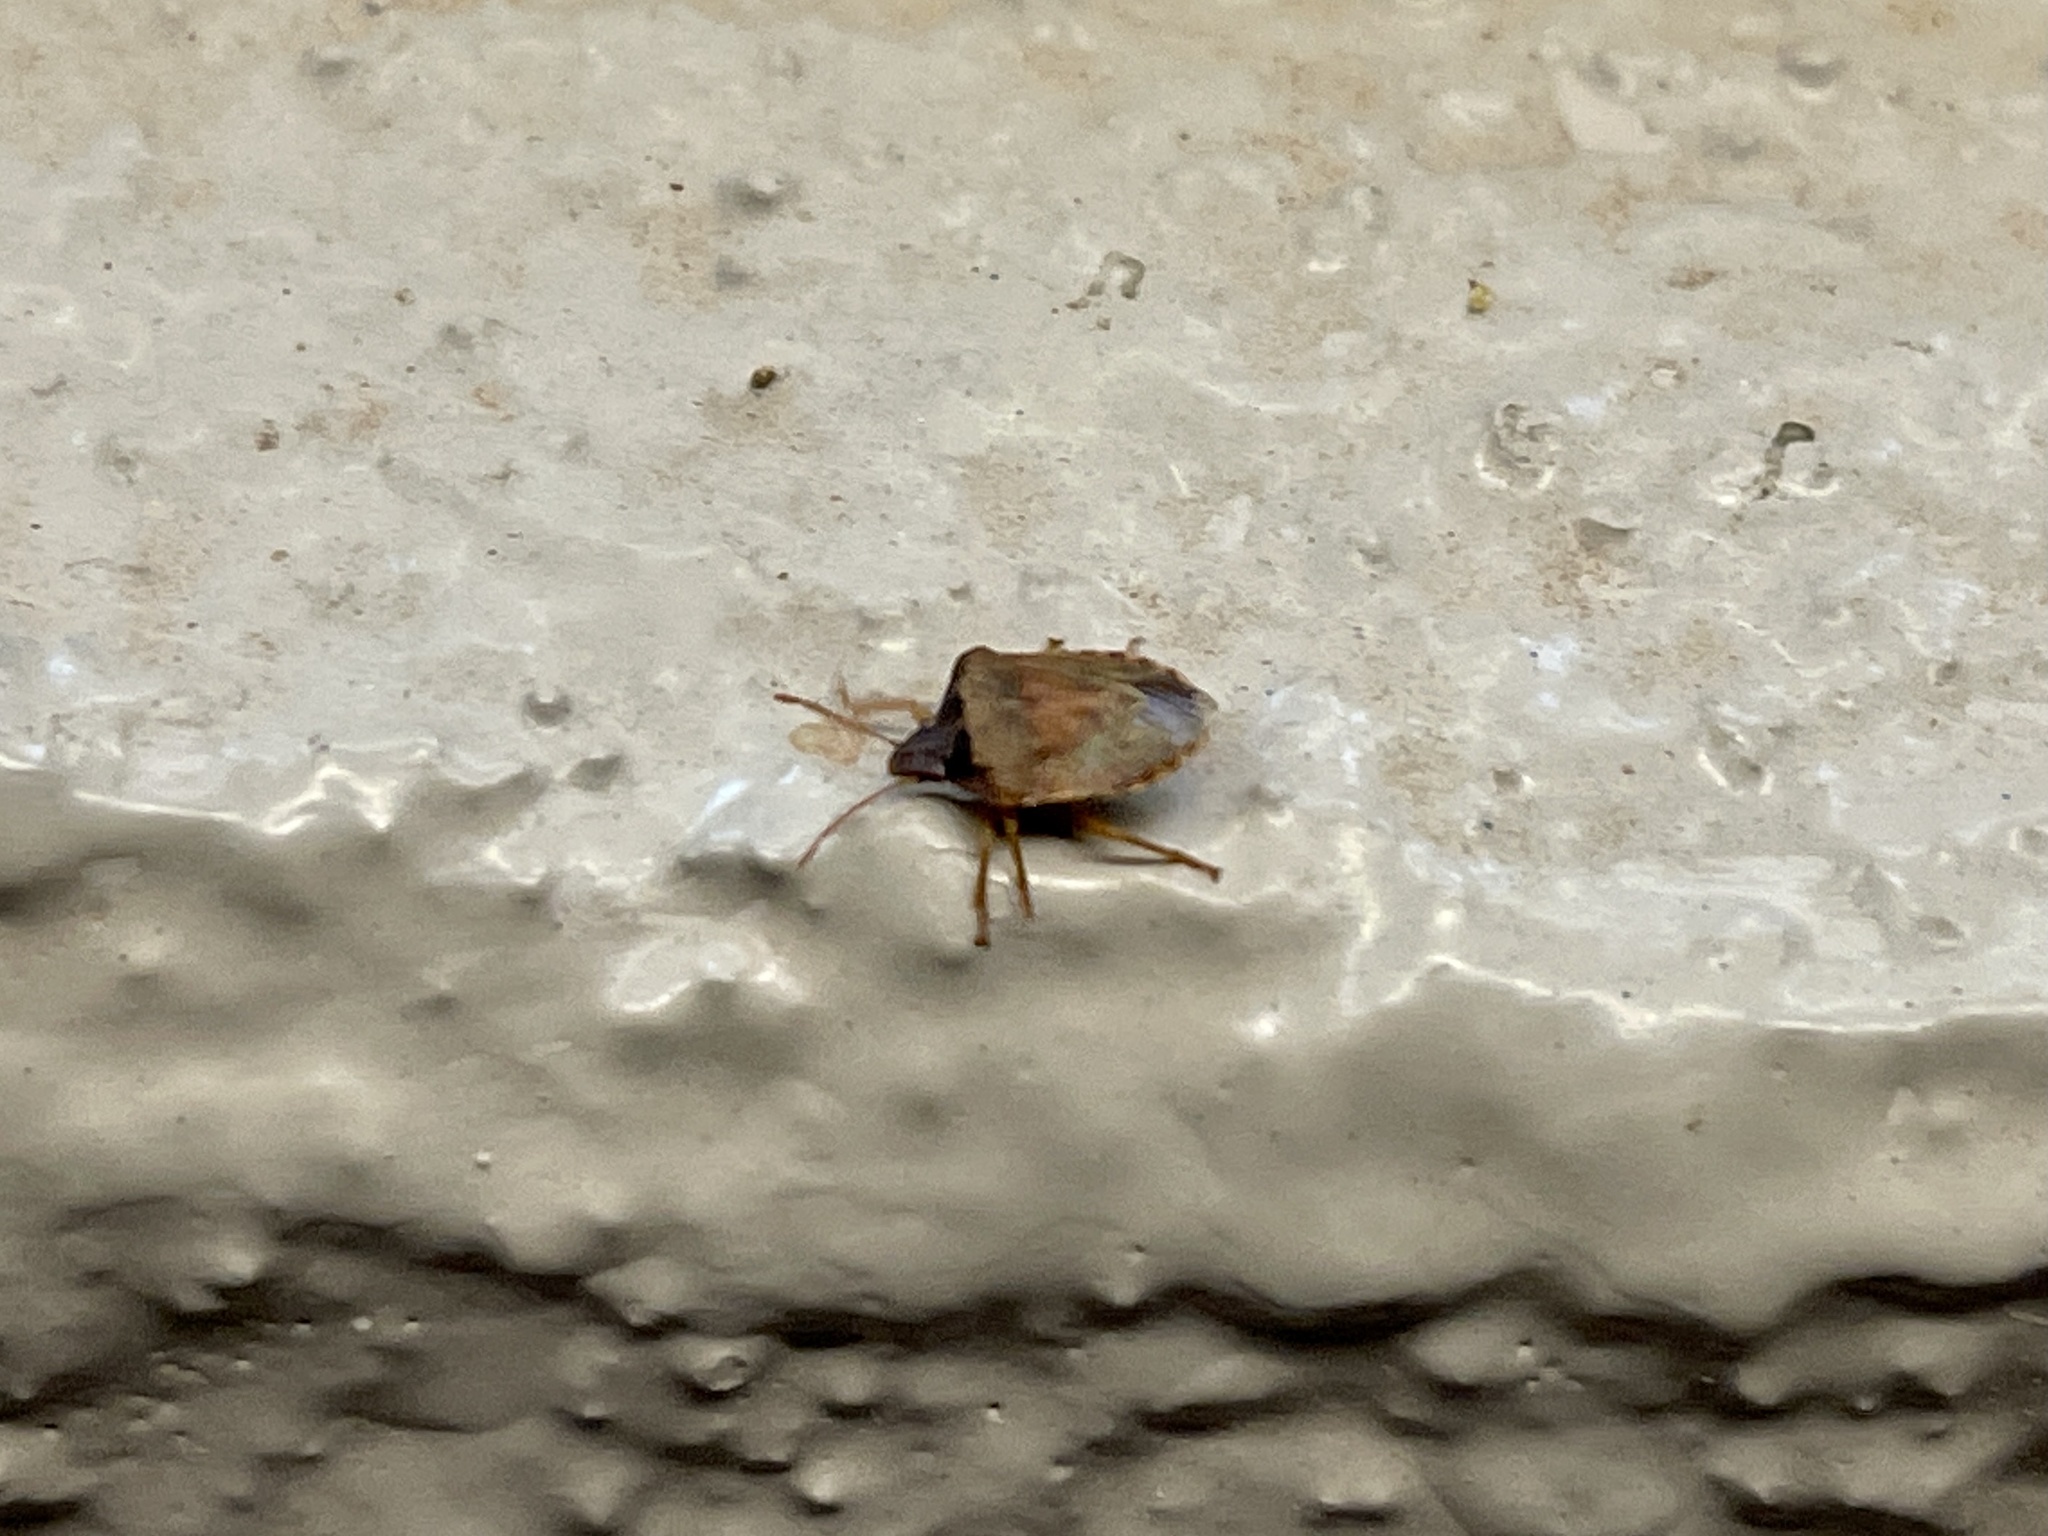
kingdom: Animalia
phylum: Arthropoda
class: Insecta
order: Hemiptera
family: Pentatomidae
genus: Dendrocoris
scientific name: Dendrocoris contaminatus
